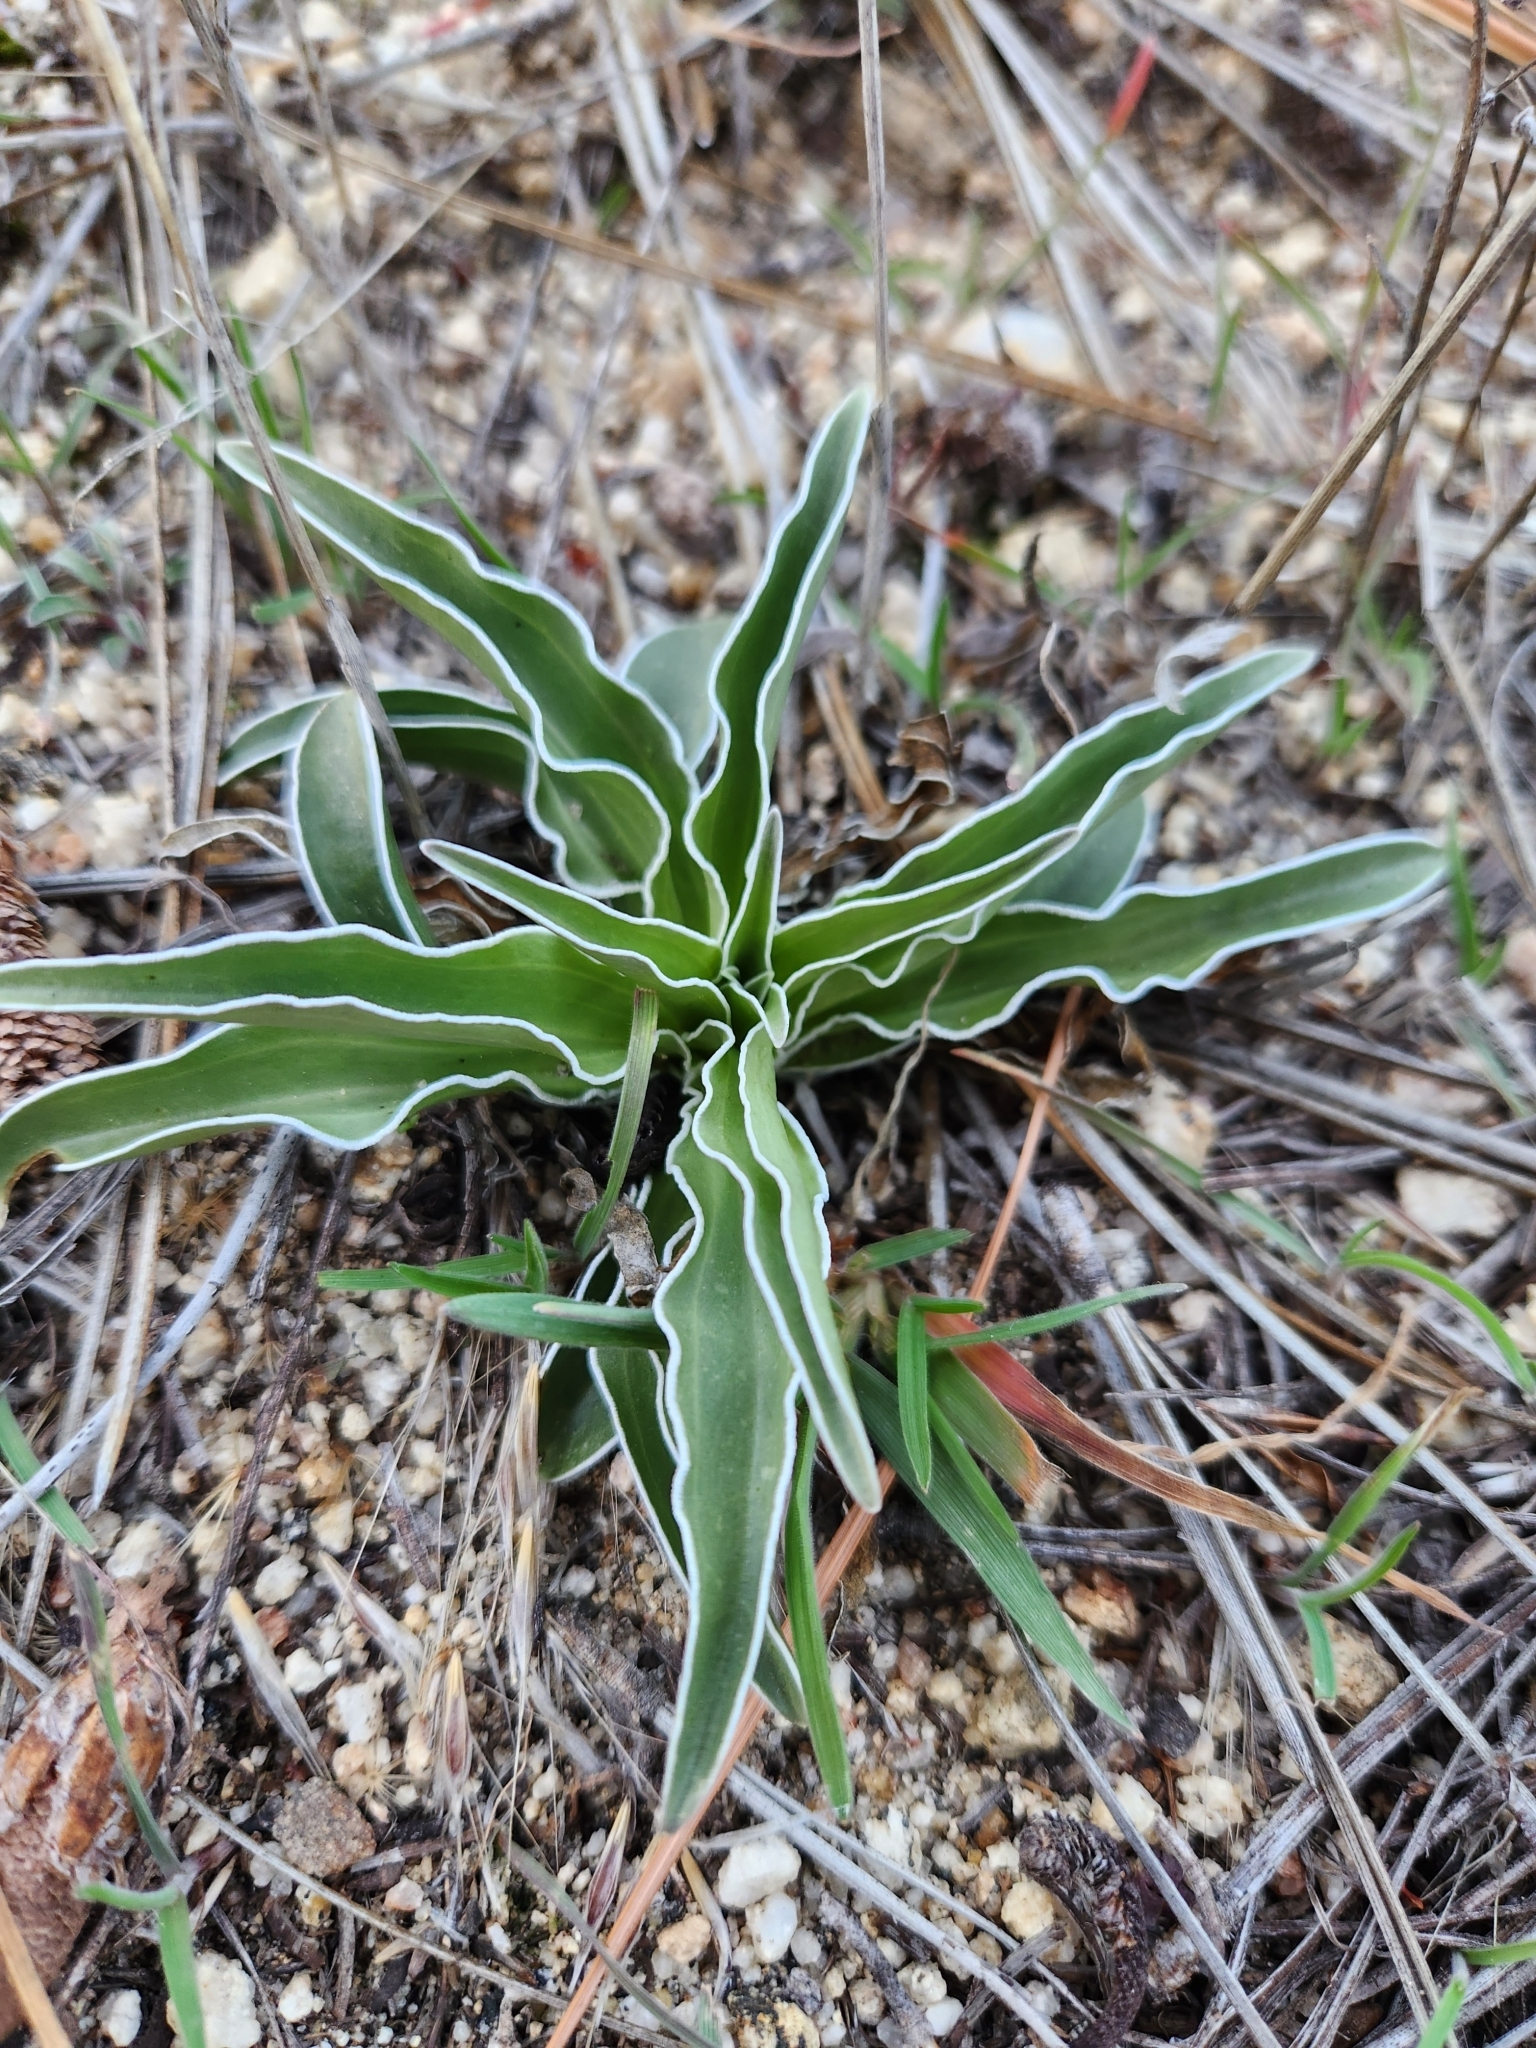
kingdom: Plantae
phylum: Tracheophyta
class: Magnoliopsida
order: Gentianales
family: Gentianaceae
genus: Frasera
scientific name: Frasera parryi
